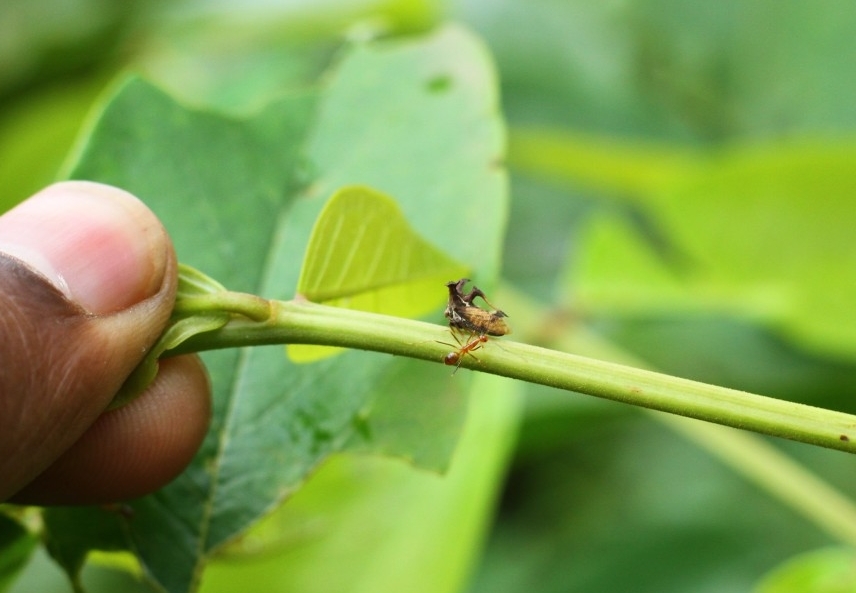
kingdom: Animalia
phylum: Arthropoda
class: Insecta
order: Hymenoptera
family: Formicidae
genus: Anoplolepis
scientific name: Anoplolepis gracilipes
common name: Ant
